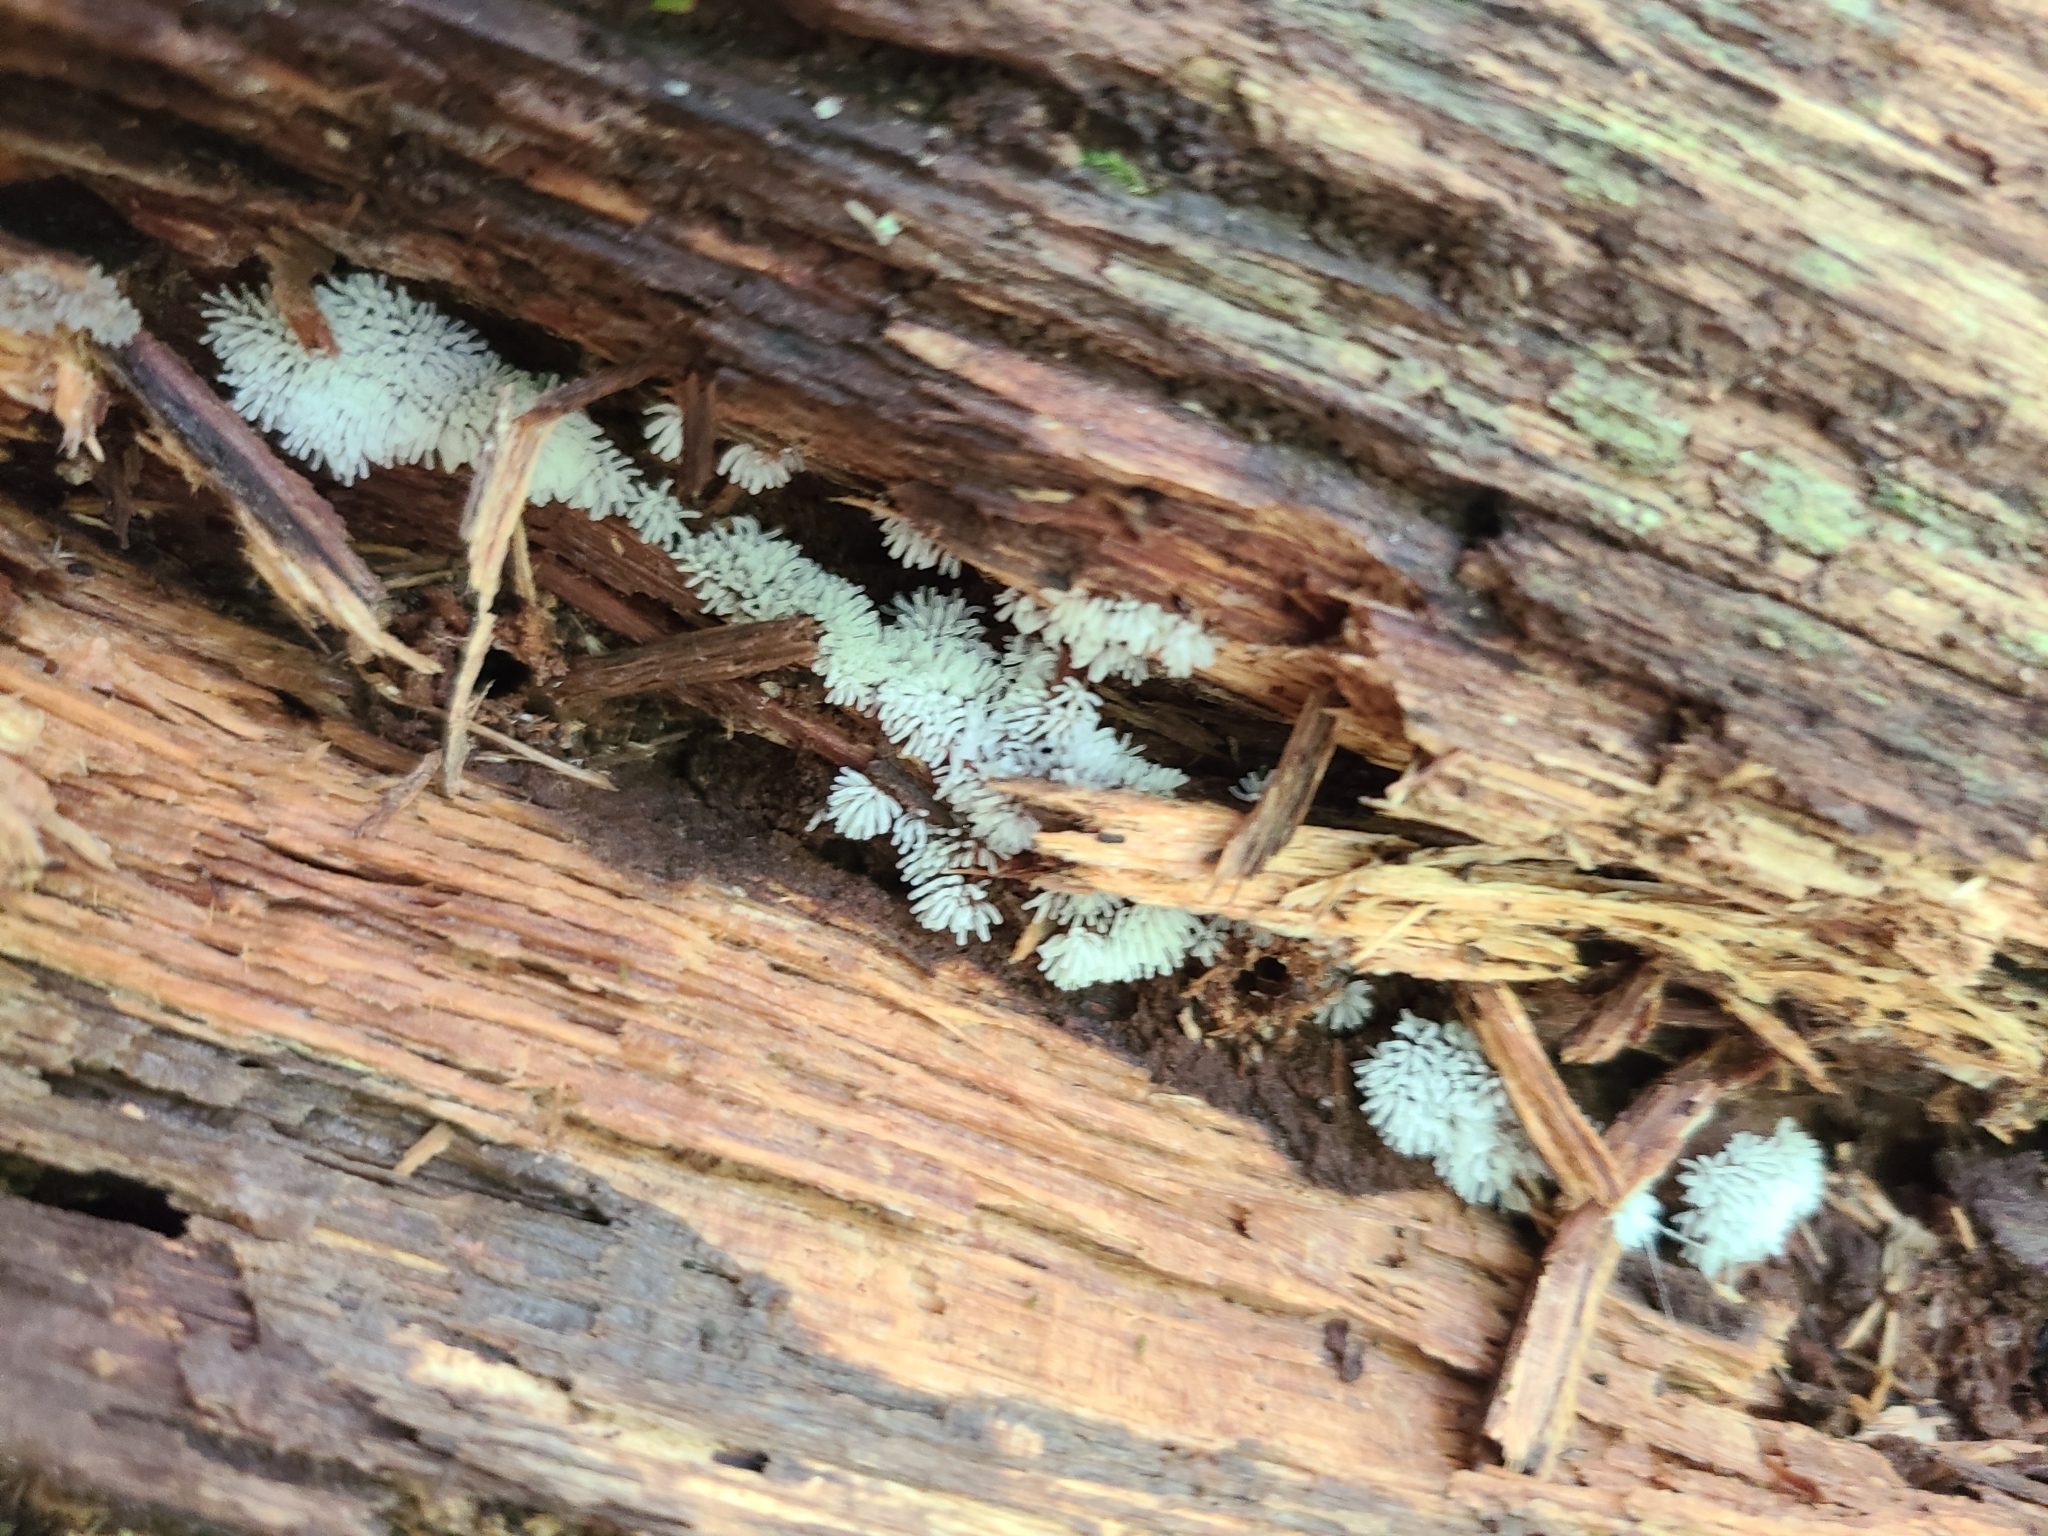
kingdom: Protozoa
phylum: Mycetozoa
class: Protosteliomycetes
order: Ceratiomyxales
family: Ceratiomyxaceae
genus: Ceratiomyxa
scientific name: Ceratiomyxa fruticulosa
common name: Honeycomb coral slime mold
